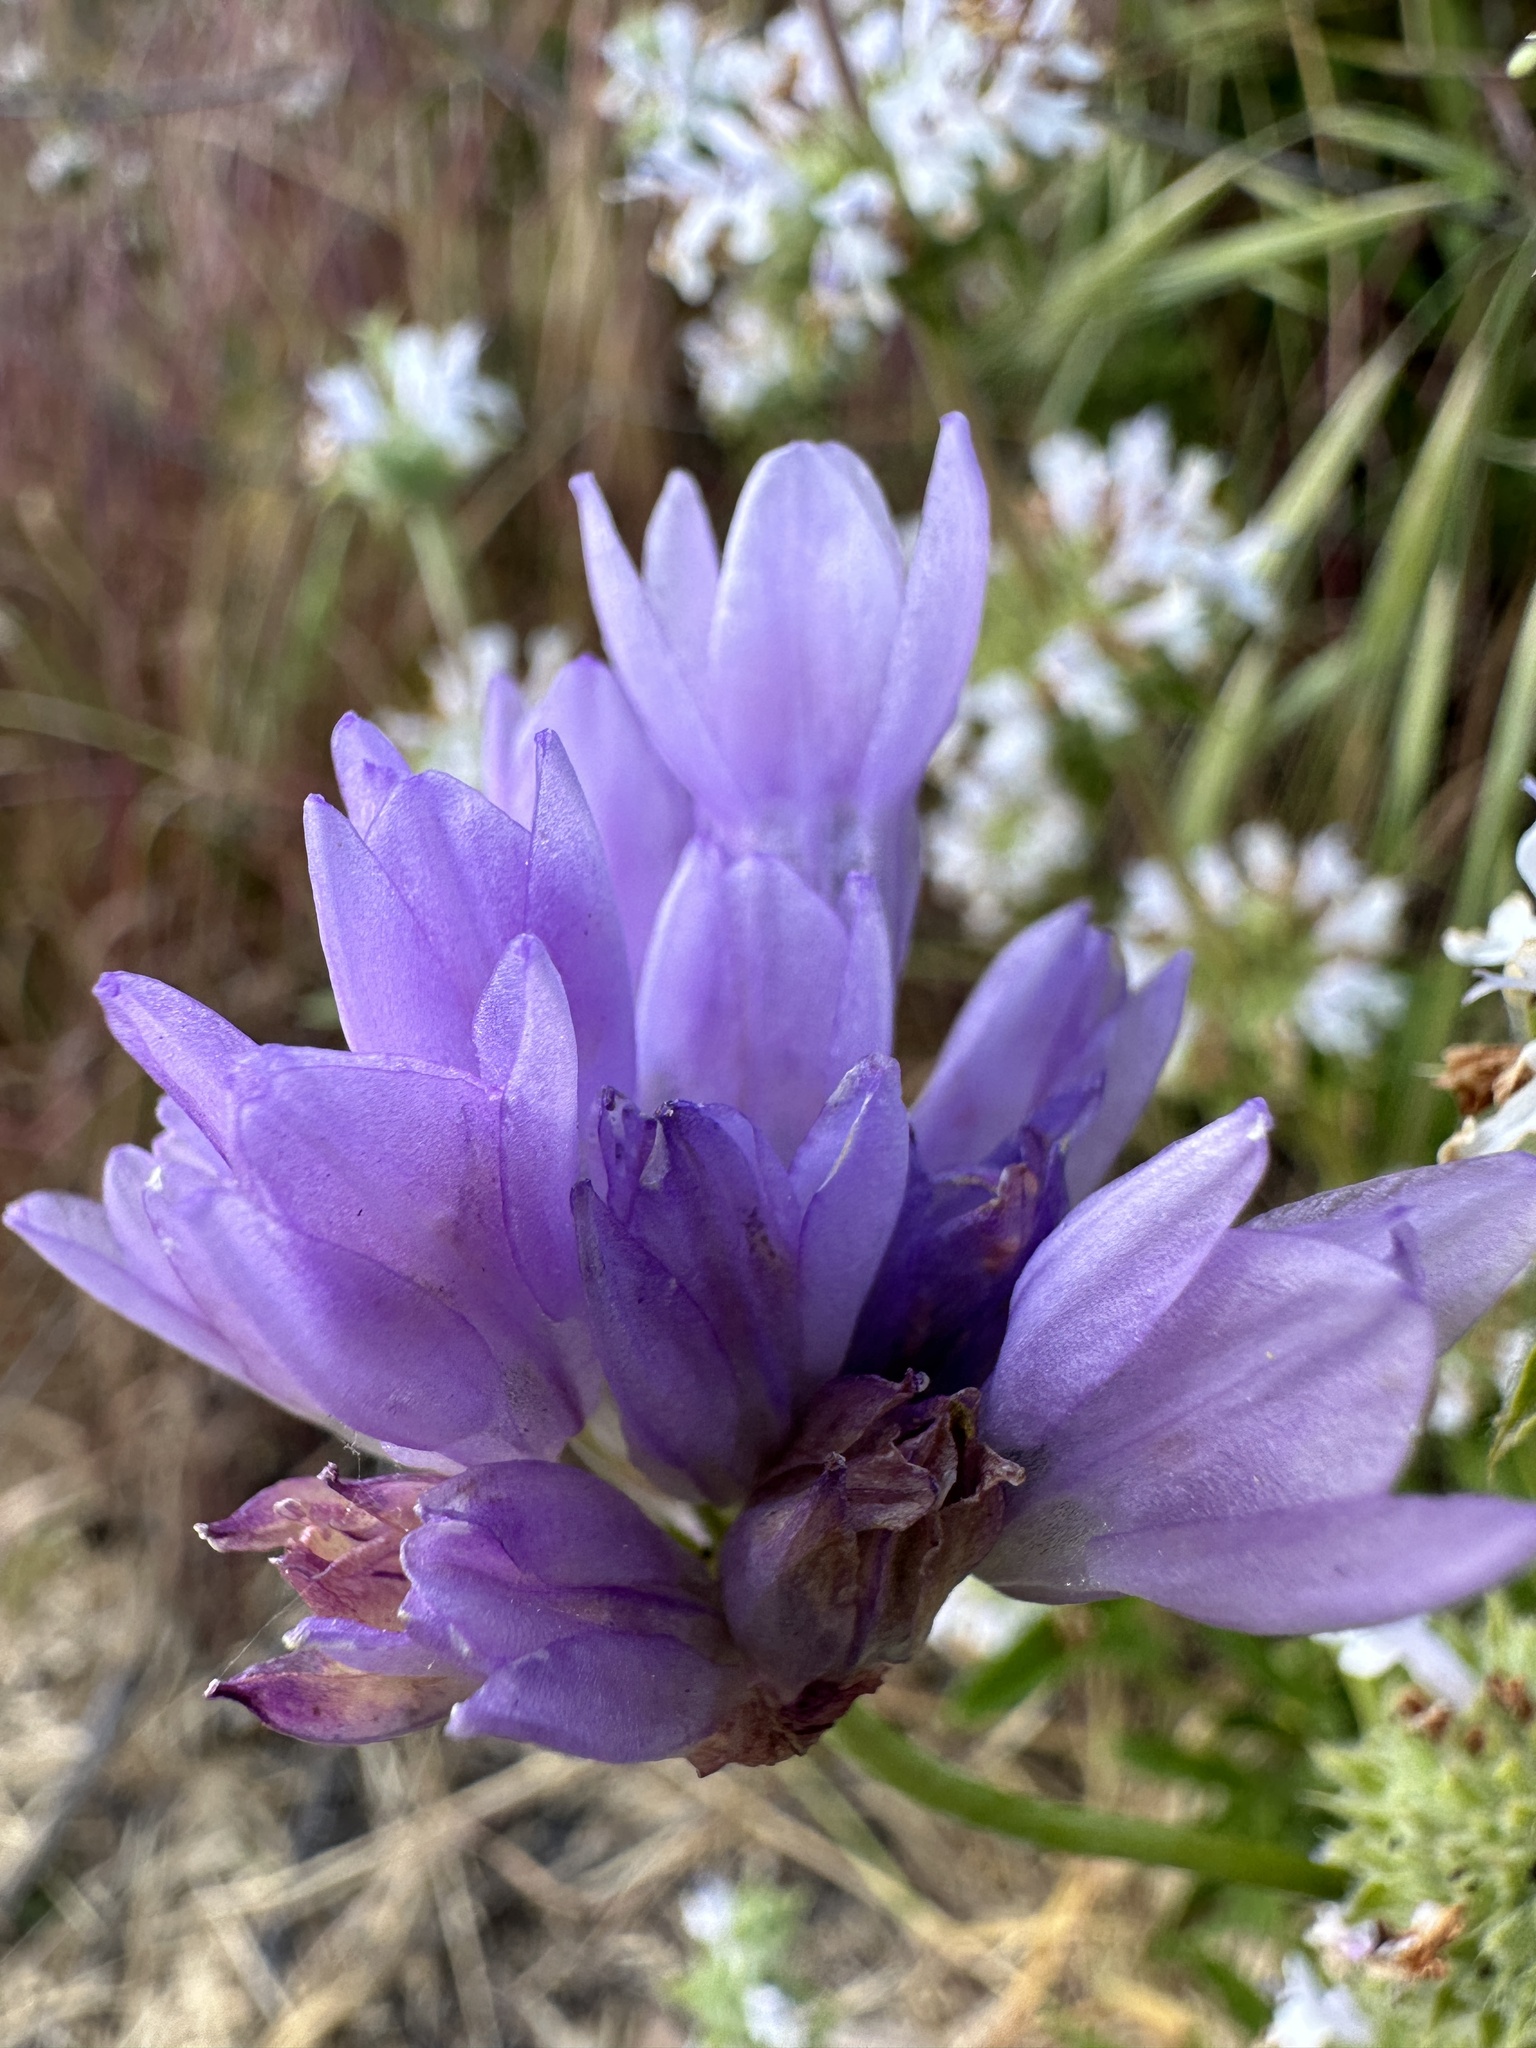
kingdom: Plantae
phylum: Tracheophyta
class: Liliopsida
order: Asparagales
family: Asparagaceae
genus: Dipterostemon
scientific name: Dipterostemon capitatus
